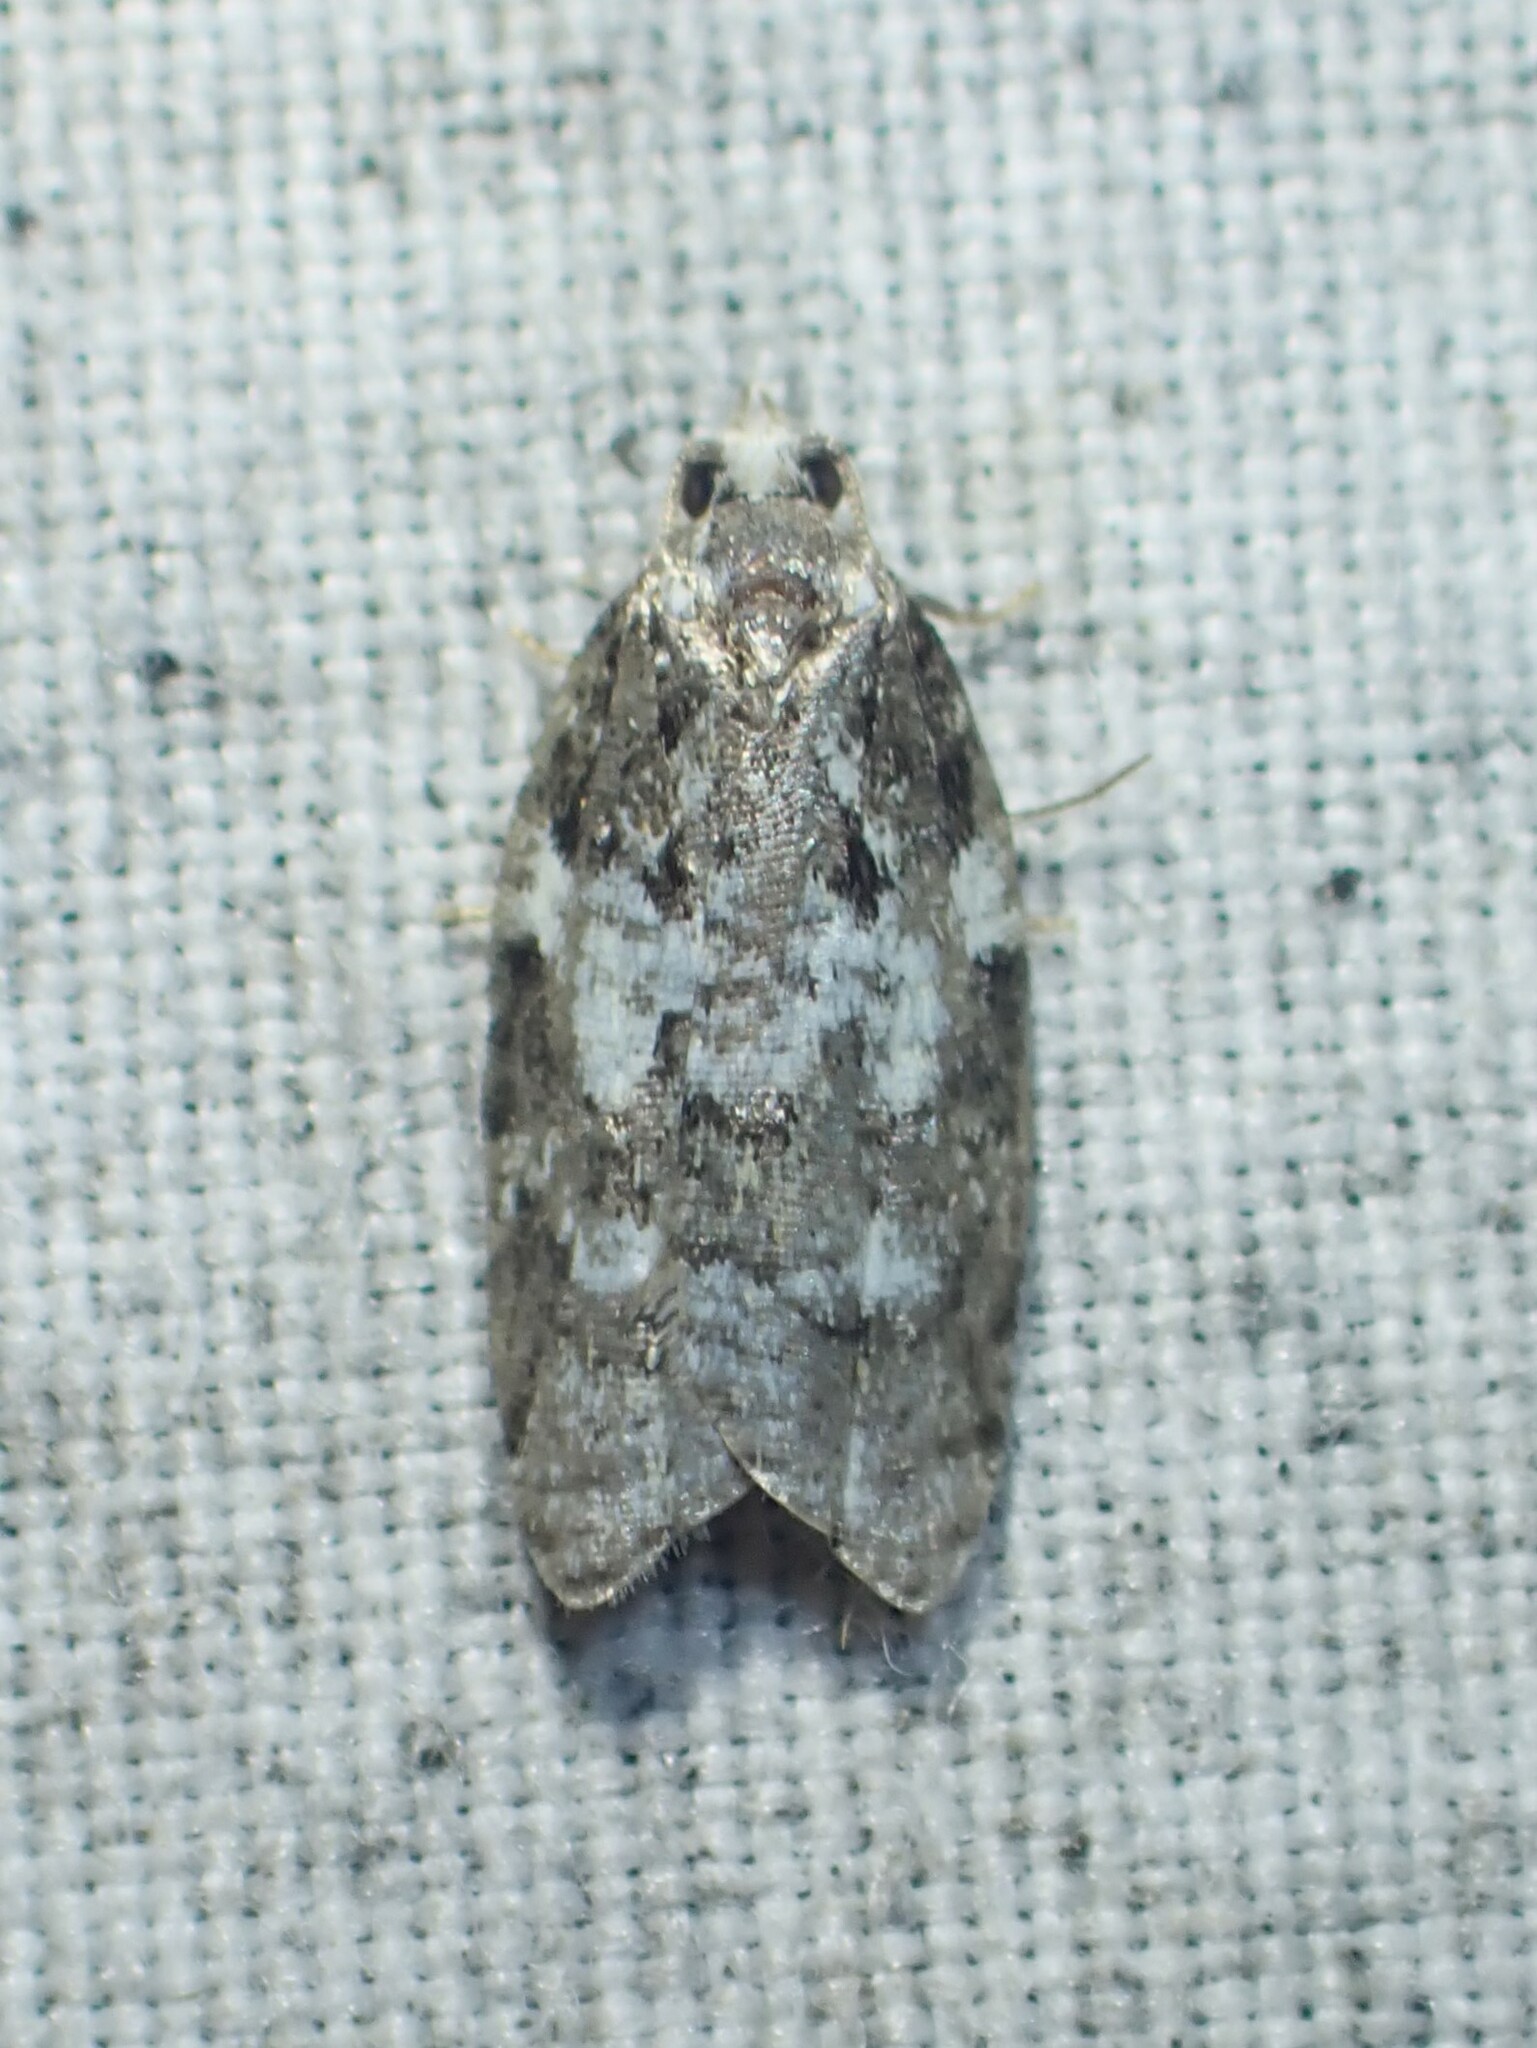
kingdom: Animalia
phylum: Arthropoda
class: Insecta
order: Lepidoptera
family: Tortricidae
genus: Acleris
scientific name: Acleris variana
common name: Eastern black-headed budworm moth
